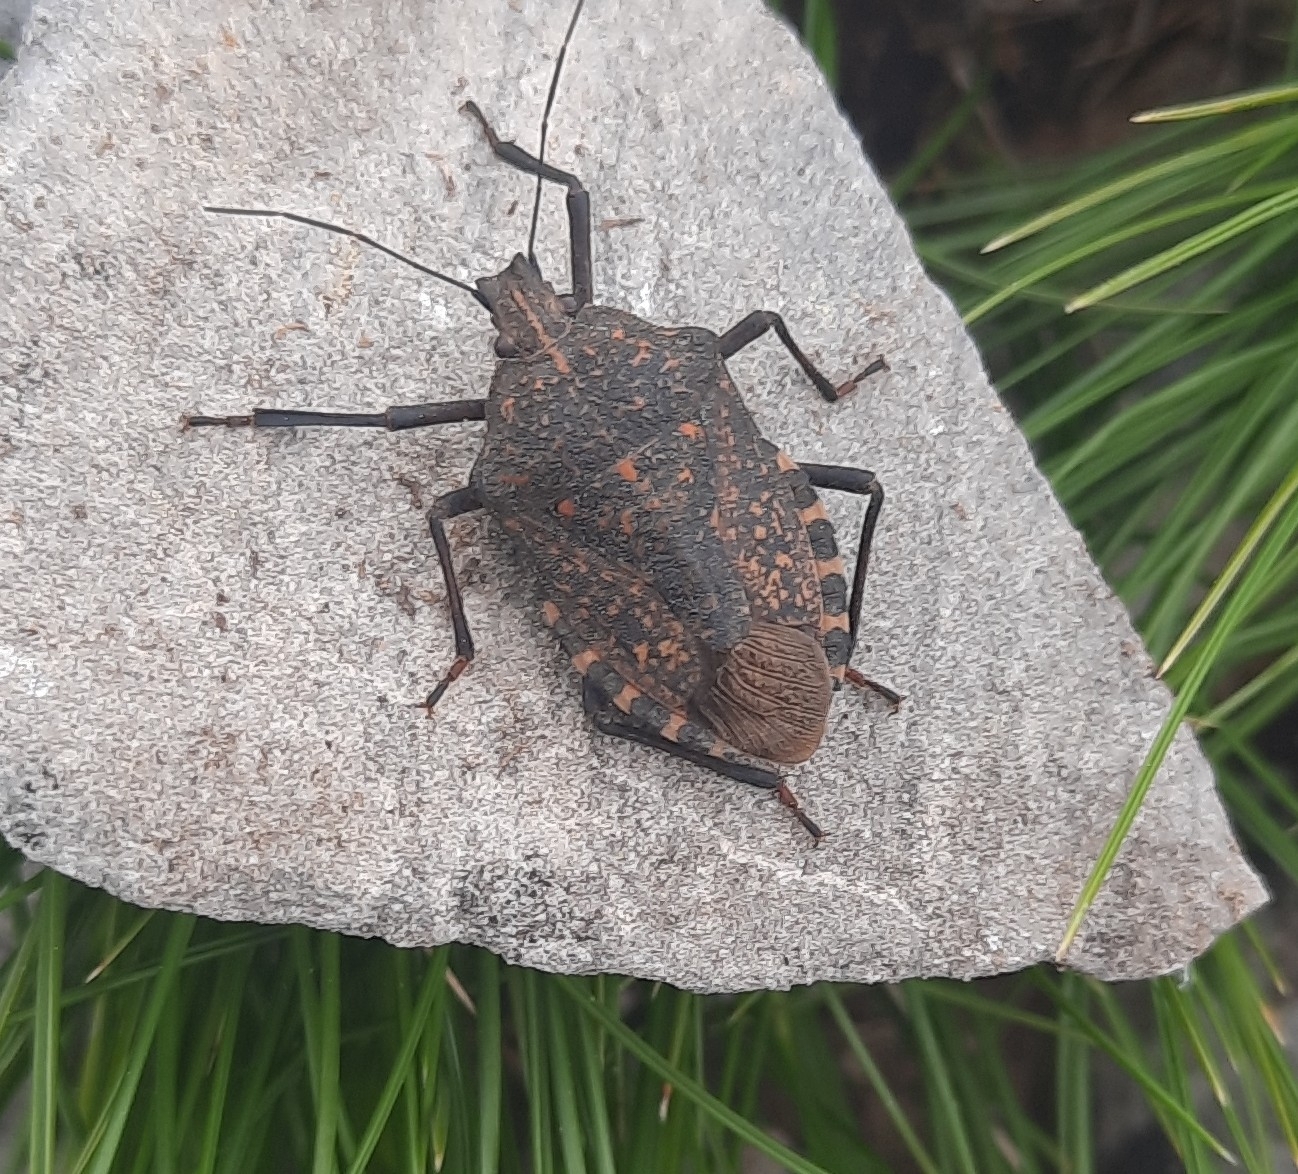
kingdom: Animalia
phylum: Arthropoda
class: Insecta
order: Hemiptera
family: Pentatomidae
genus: Apodiphus
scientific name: Apodiphus amygdali
